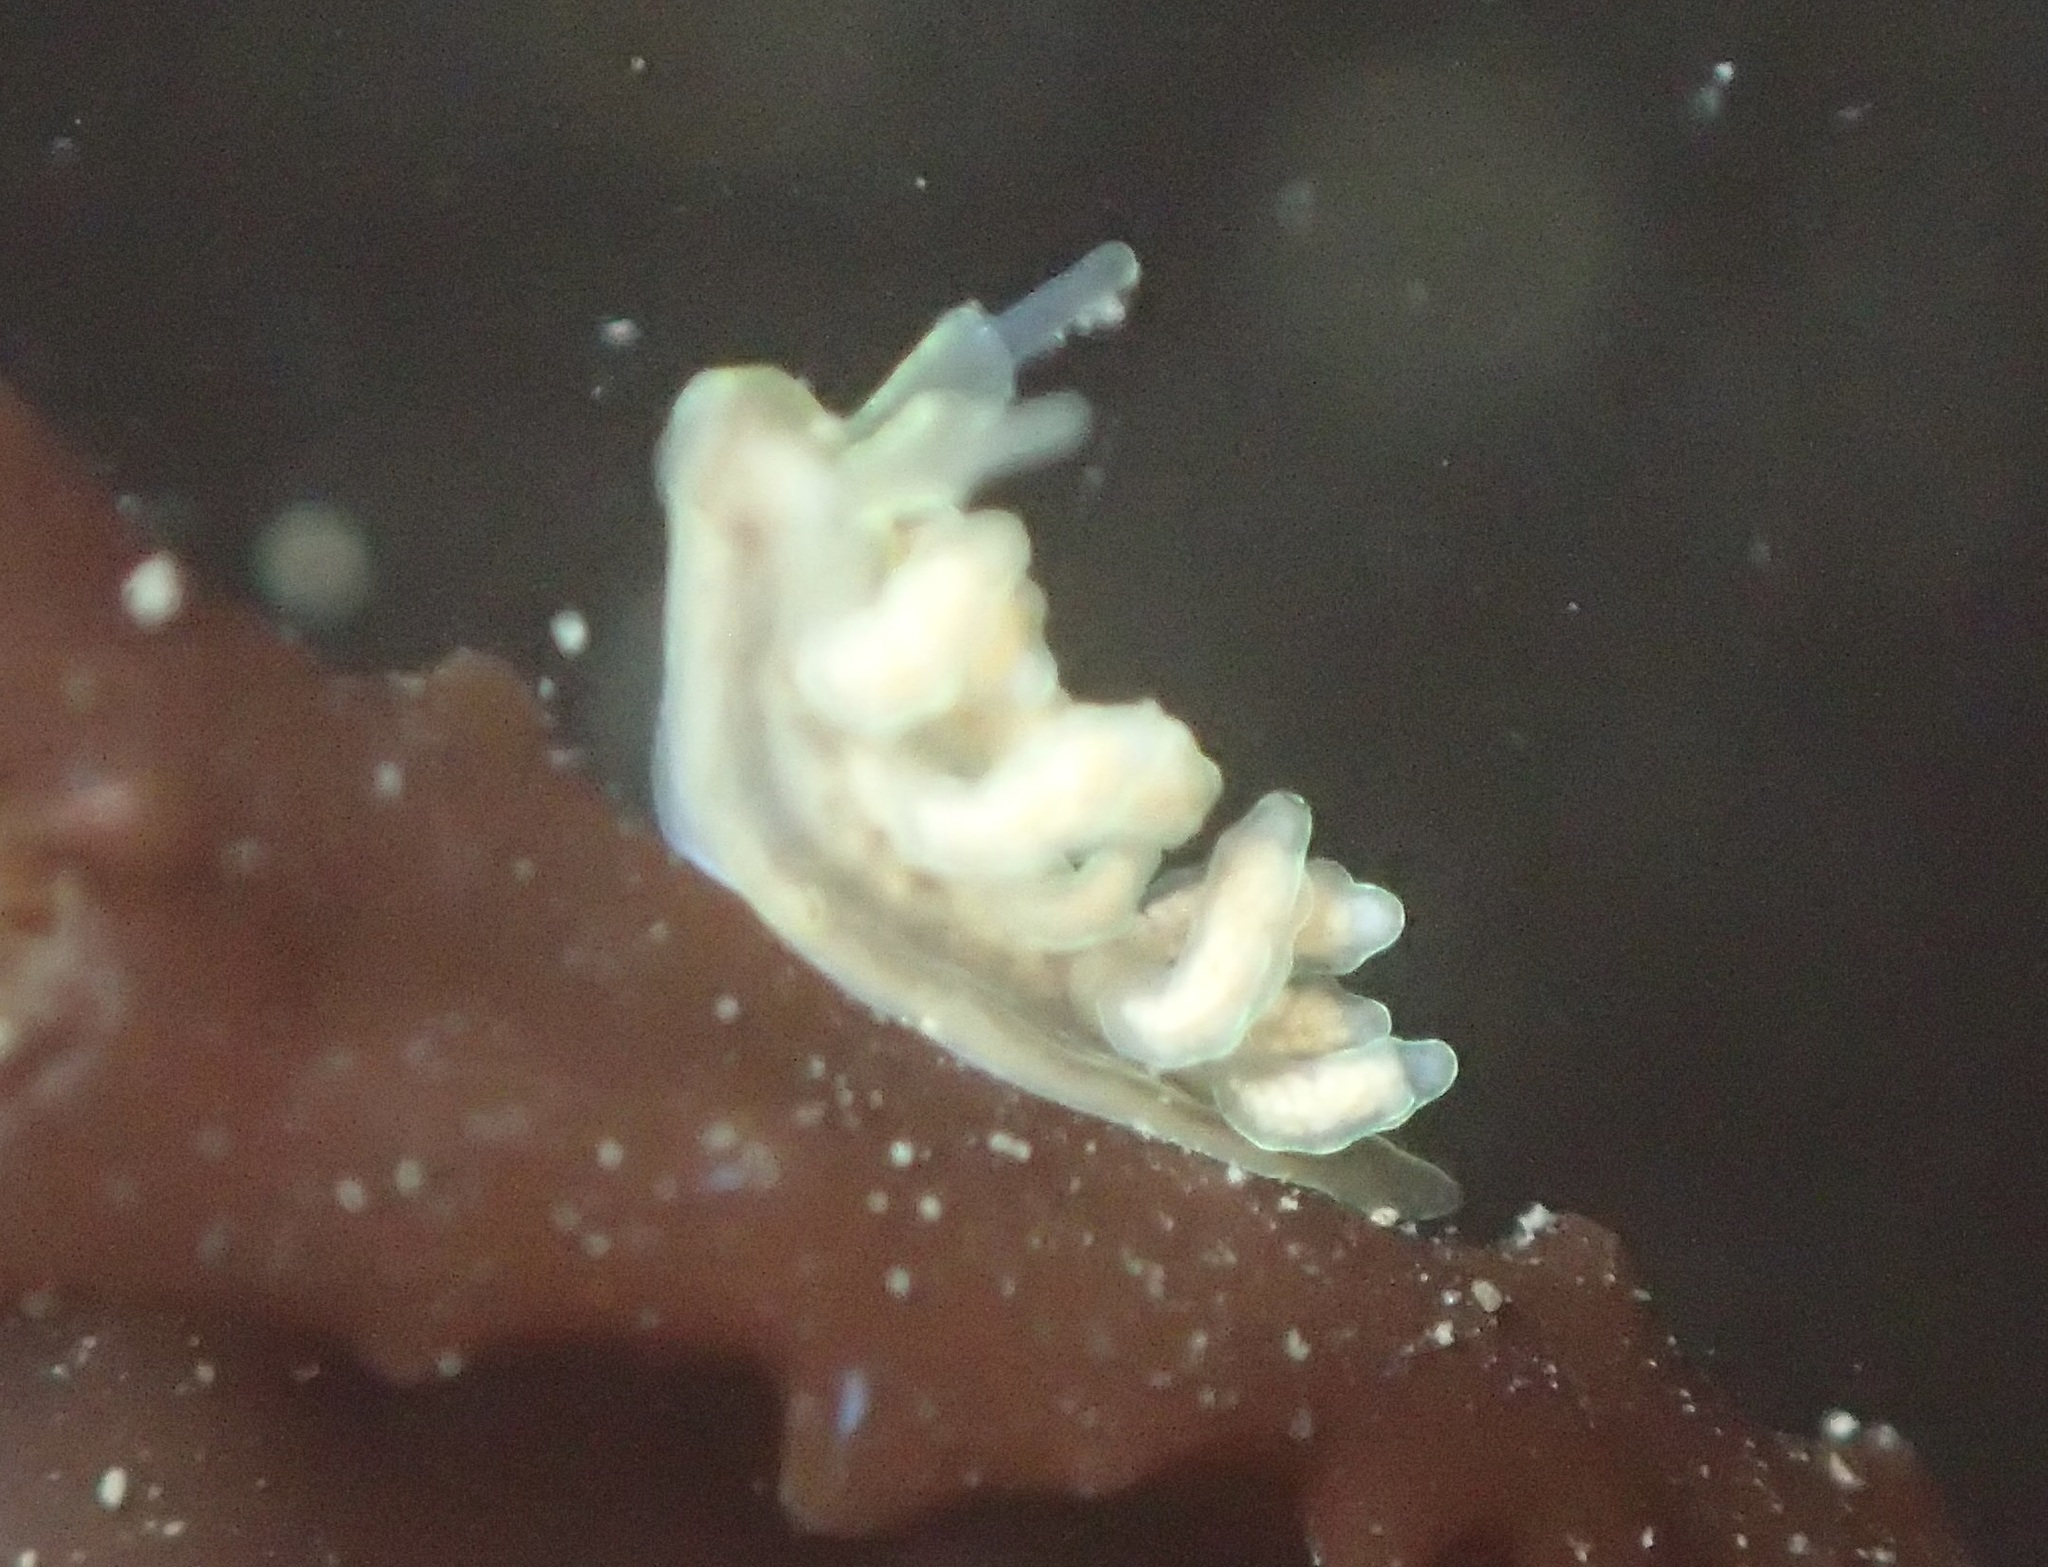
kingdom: Animalia
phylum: Mollusca
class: Gastropoda
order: Nudibranchia
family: Dotidae
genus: Doto
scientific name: Doto columbiana
